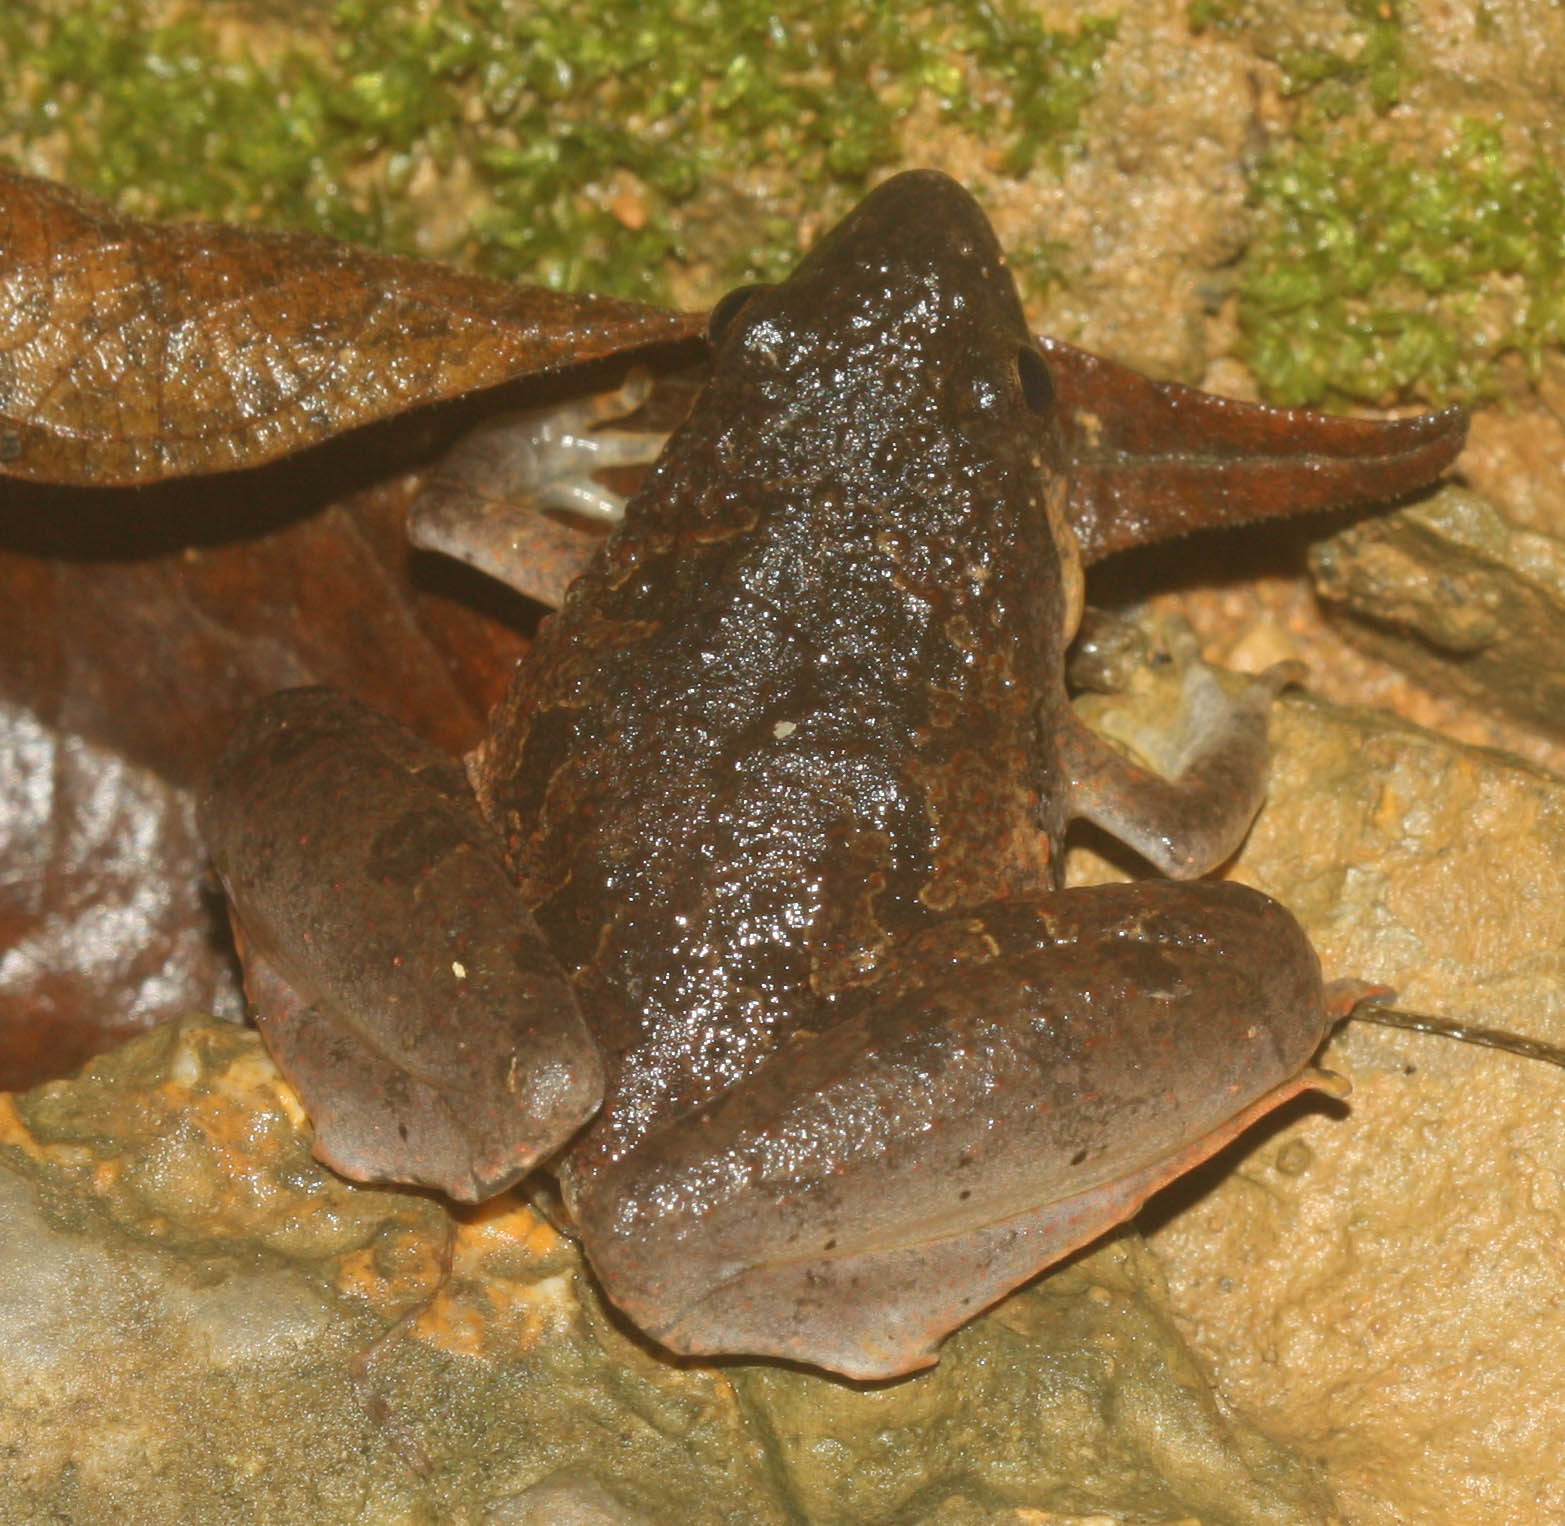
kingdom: Animalia
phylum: Chordata
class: Amphibia
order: Anura
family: Microhylidae
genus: Microhyla
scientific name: Microhyla berdmorei
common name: Berdmore’s narrow-mouthed frog,large pygmy frog
